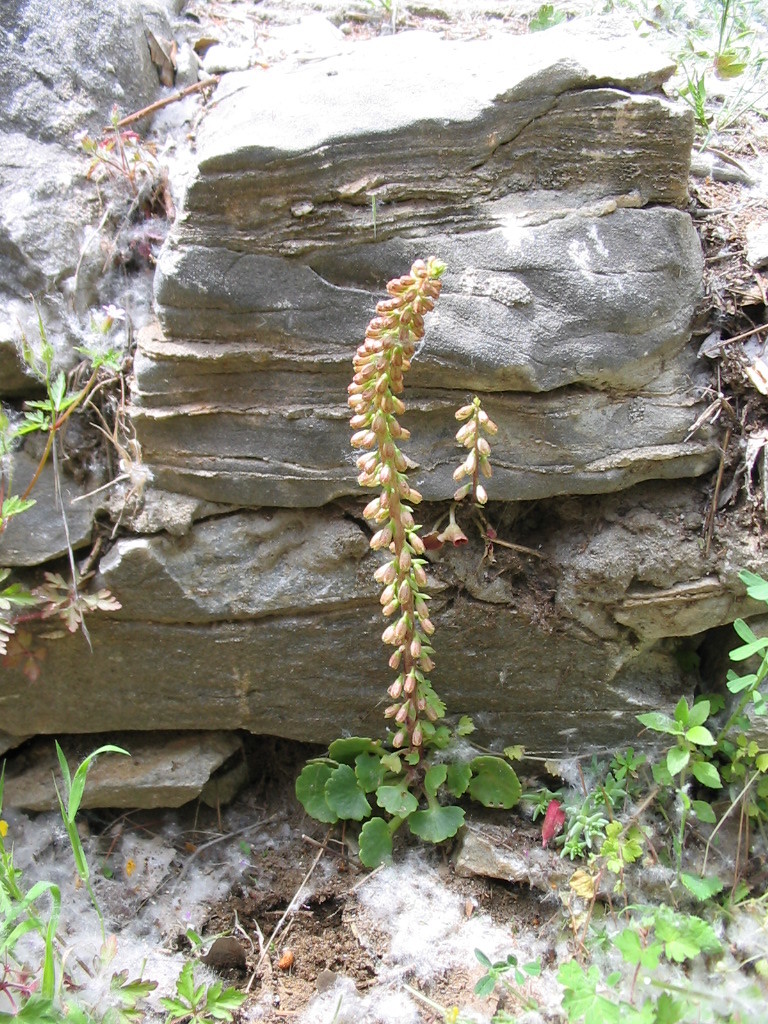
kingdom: Plantae
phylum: Tracheophyta
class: Magnoliopsida
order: Saxifragales
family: Crassulaceae
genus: Umbilicus
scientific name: Umbilicus rupestris
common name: Navelwort
